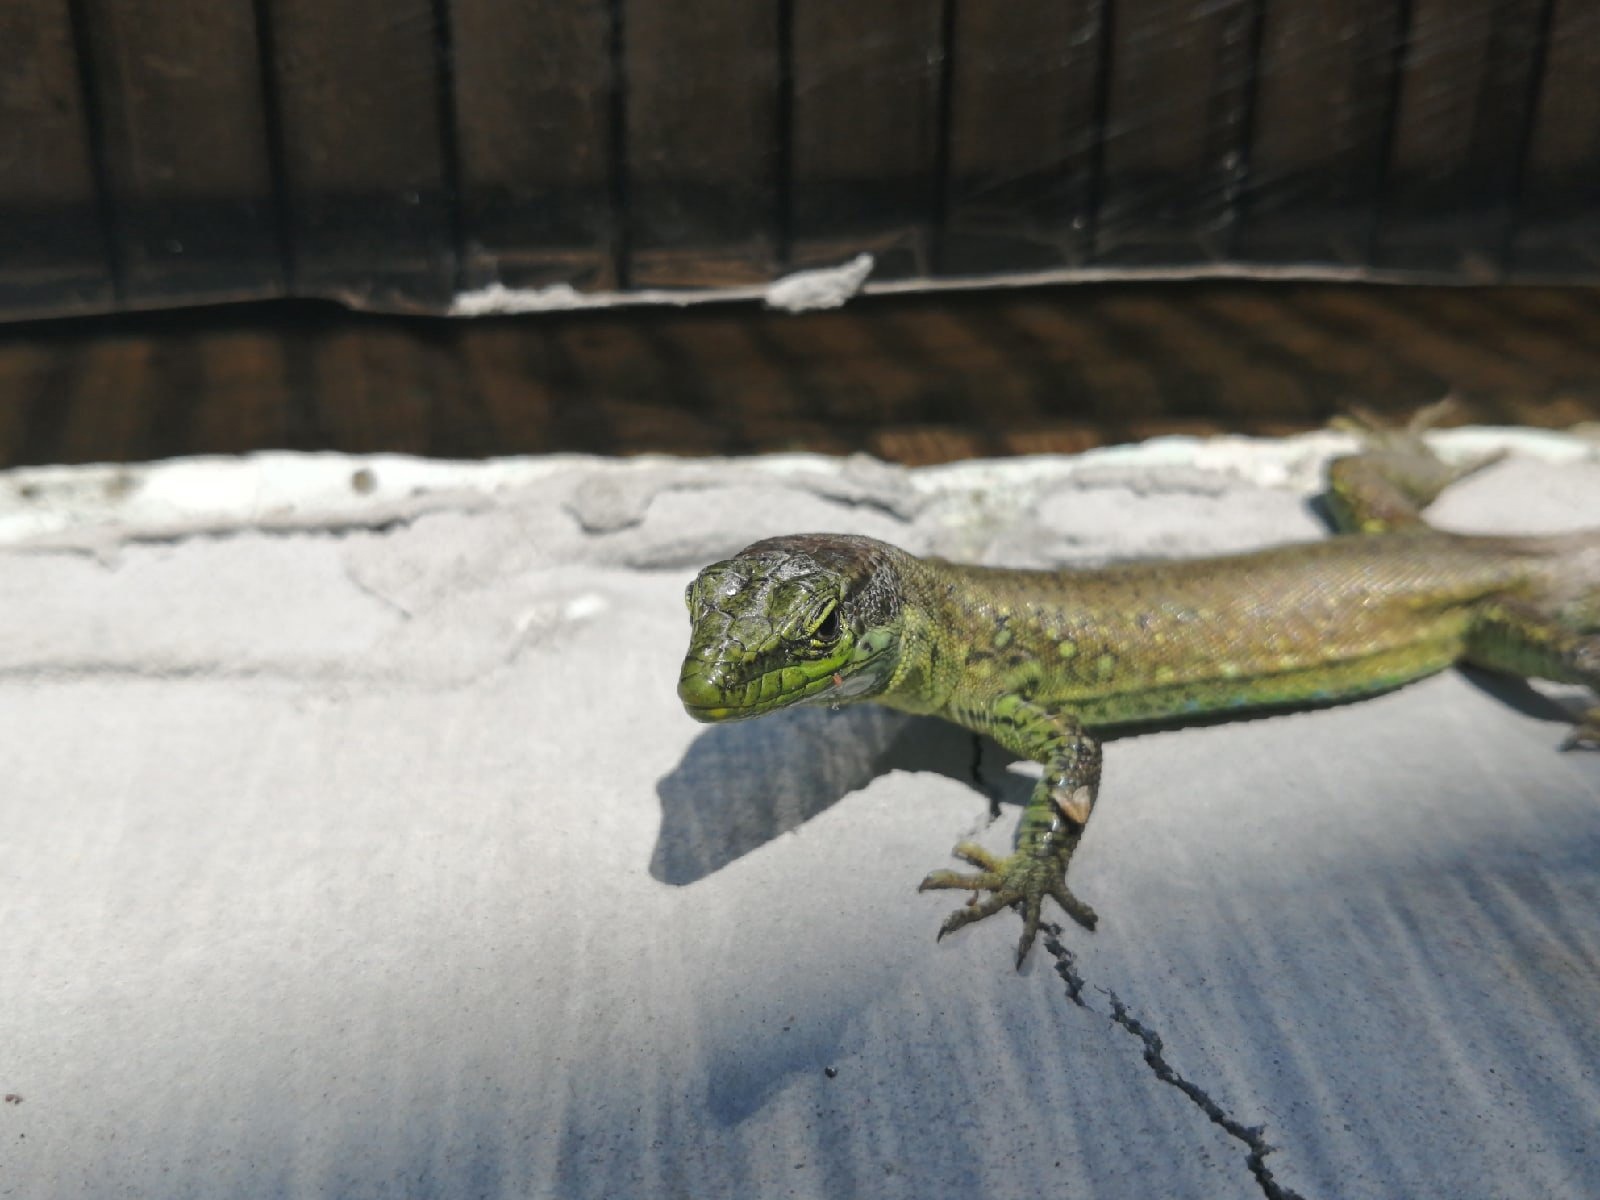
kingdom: Animalia
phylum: Chordata
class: Squamata
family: Lacertidae
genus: Darevskia
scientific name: Darevskia brauneri
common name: Brauner's rock lizard
